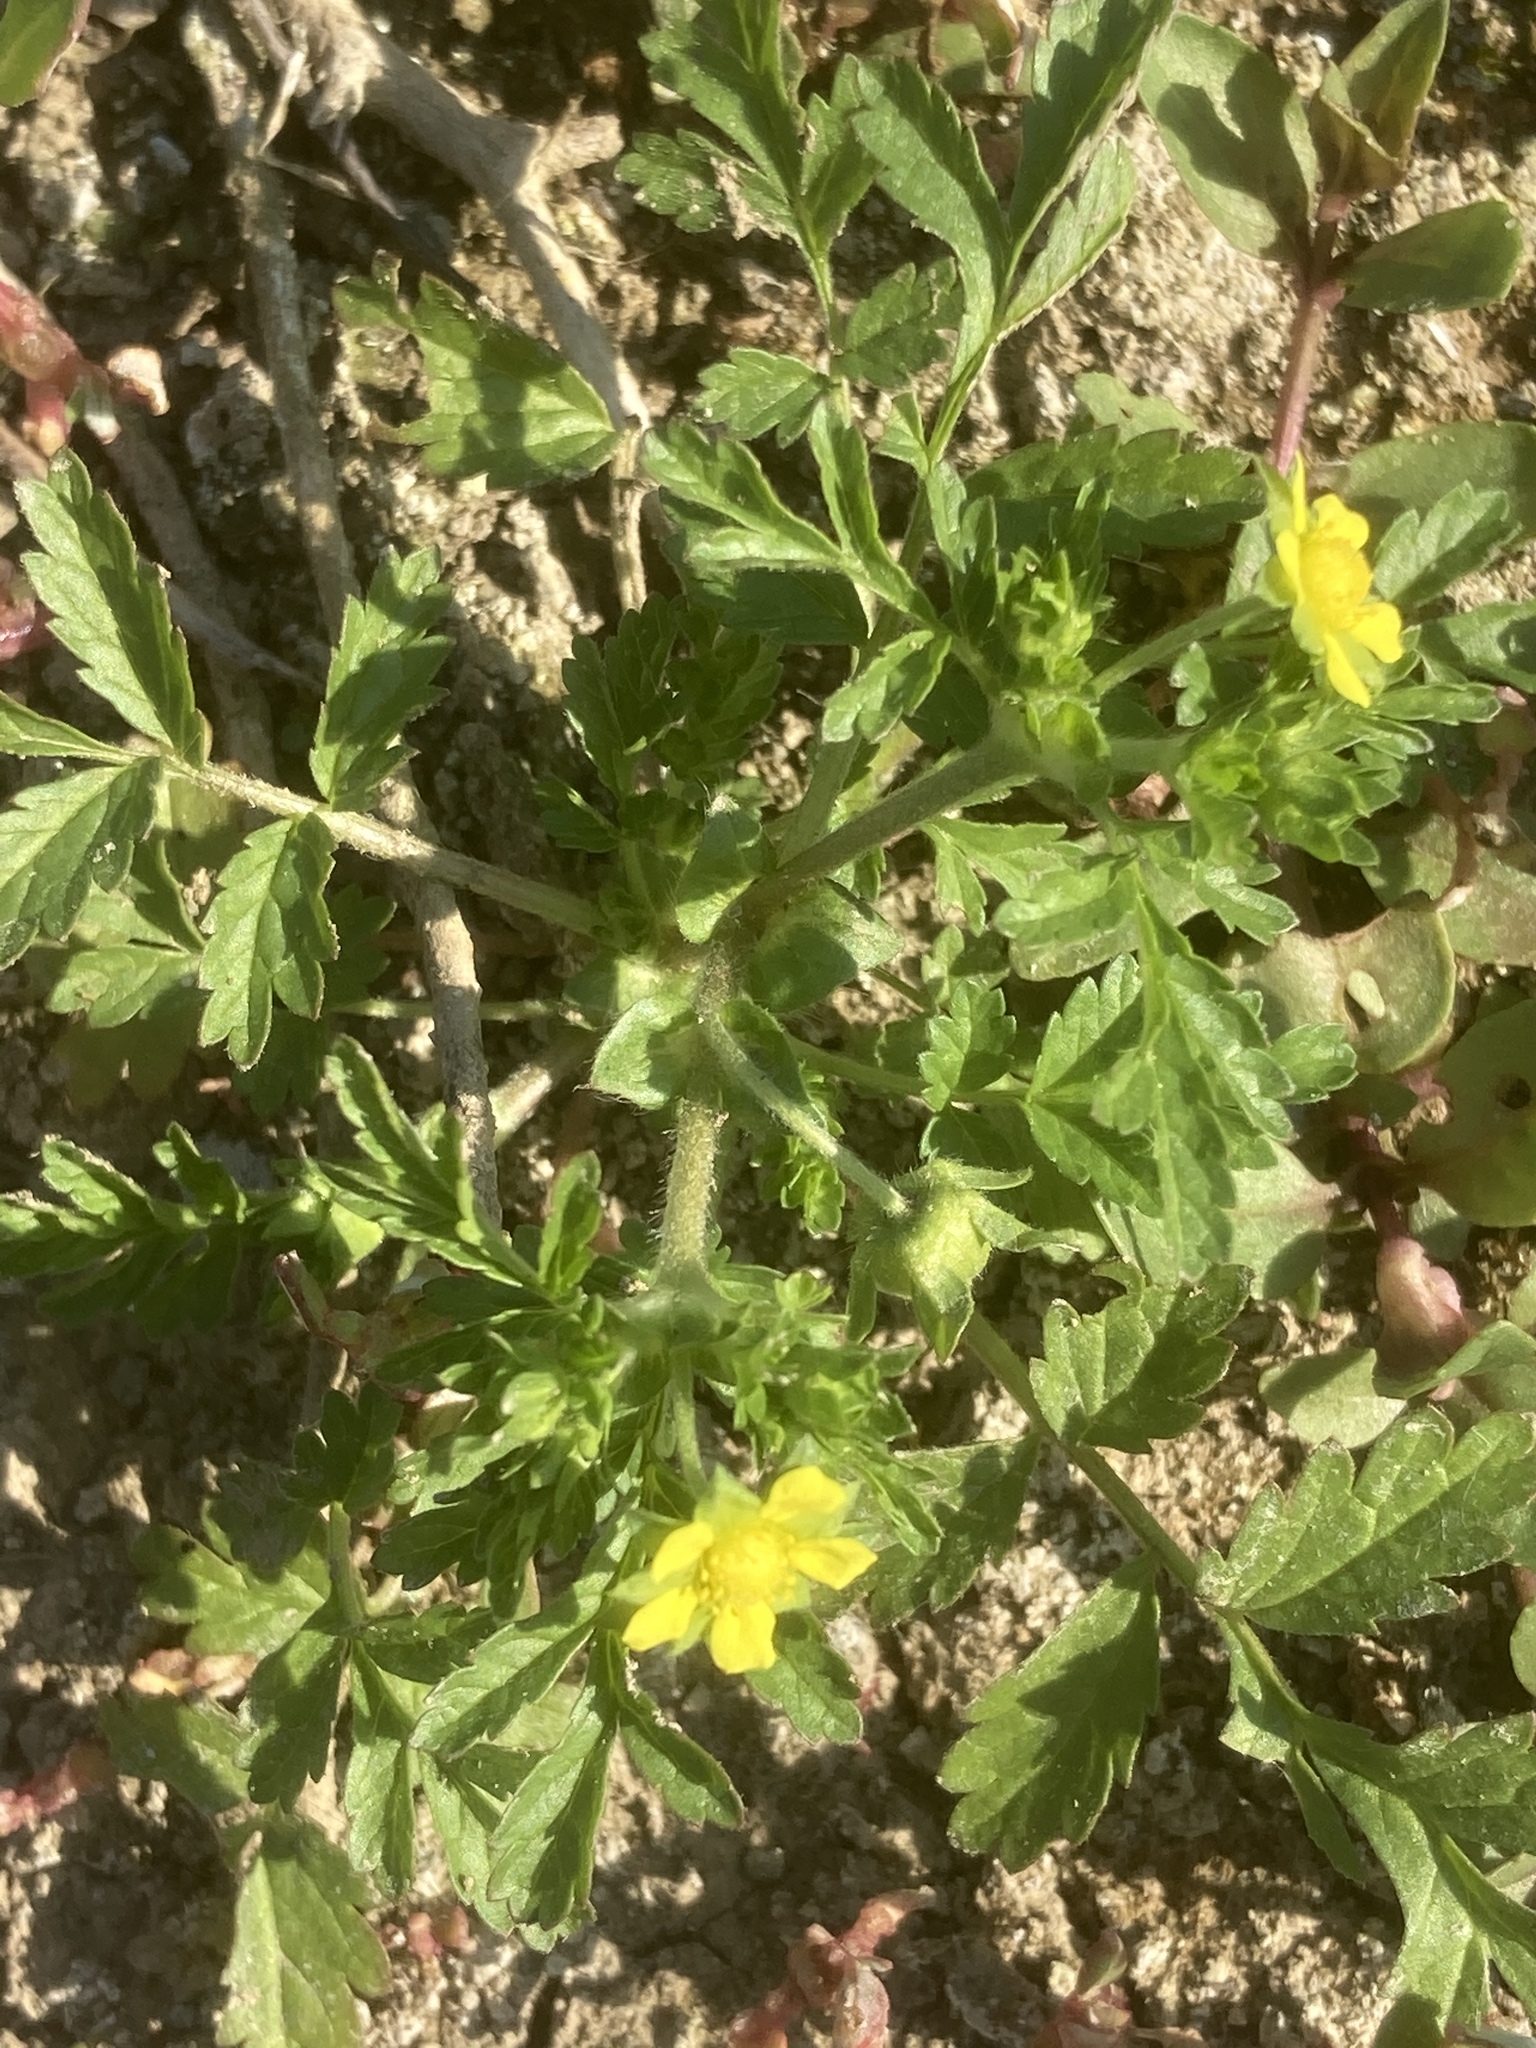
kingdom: Plantae
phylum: Tracheophyta
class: Magnoliopsida
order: Rosales
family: Rosaceae
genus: Potentilla
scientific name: Potentilla supina
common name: Prostrate cinquefoil
